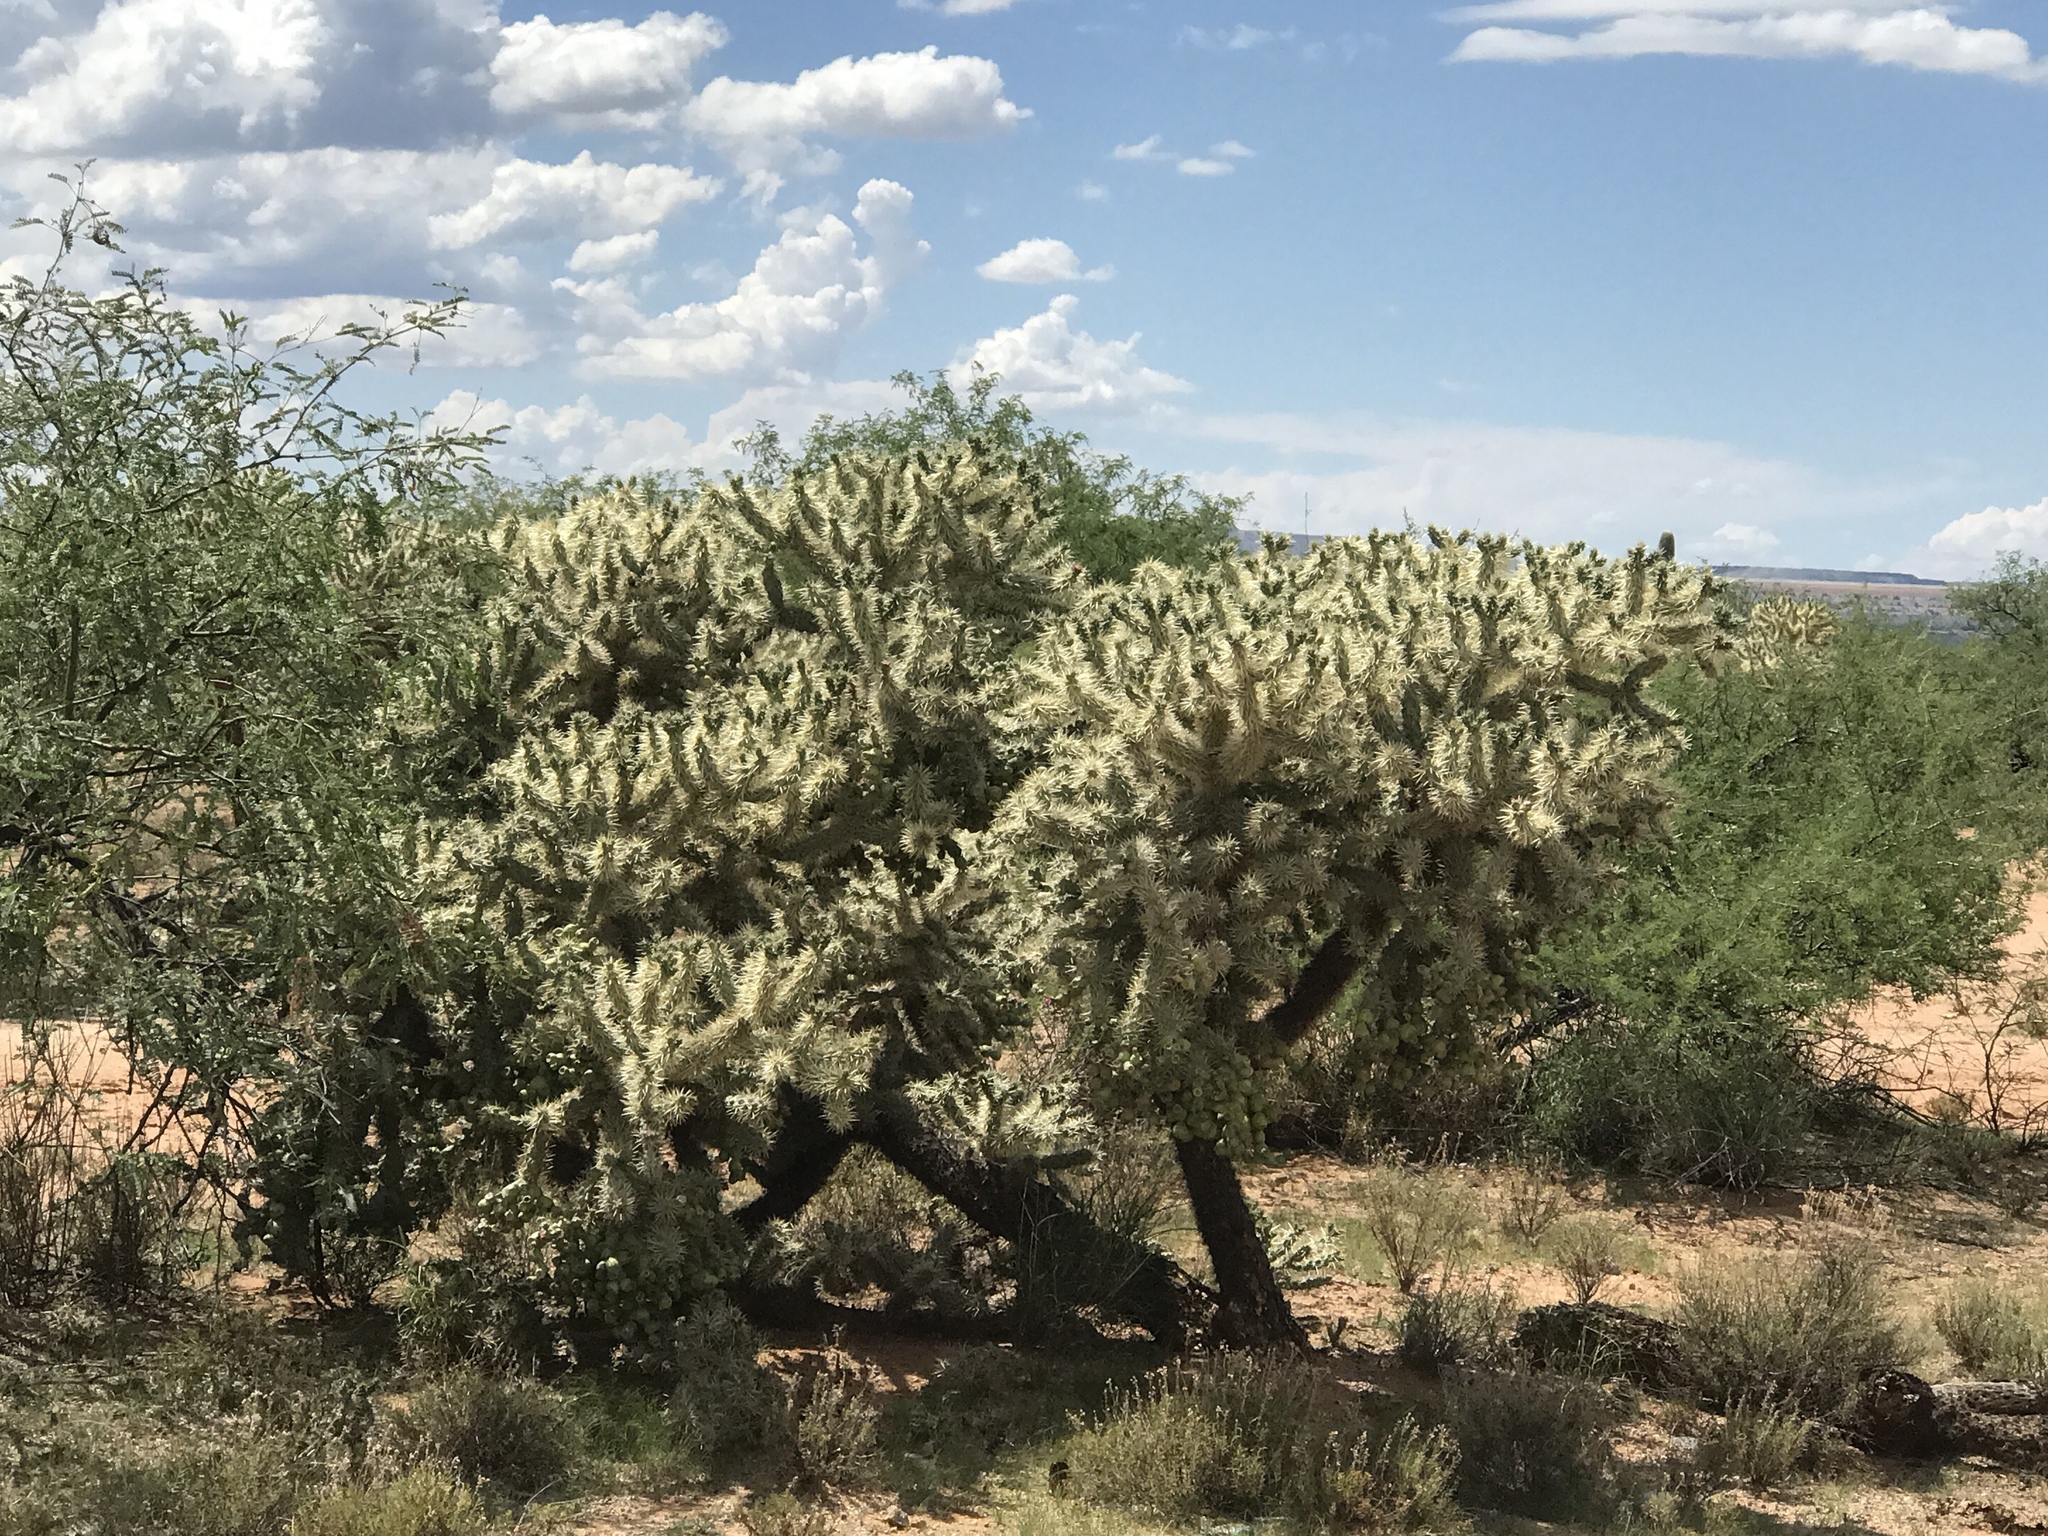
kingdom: Plantae
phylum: Tracheophyta
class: Magnoliopsida
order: Caryophyllales
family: Cactaceae
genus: Cylindropuntia
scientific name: Cylindropuntia fulgida
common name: Jumping cholla
